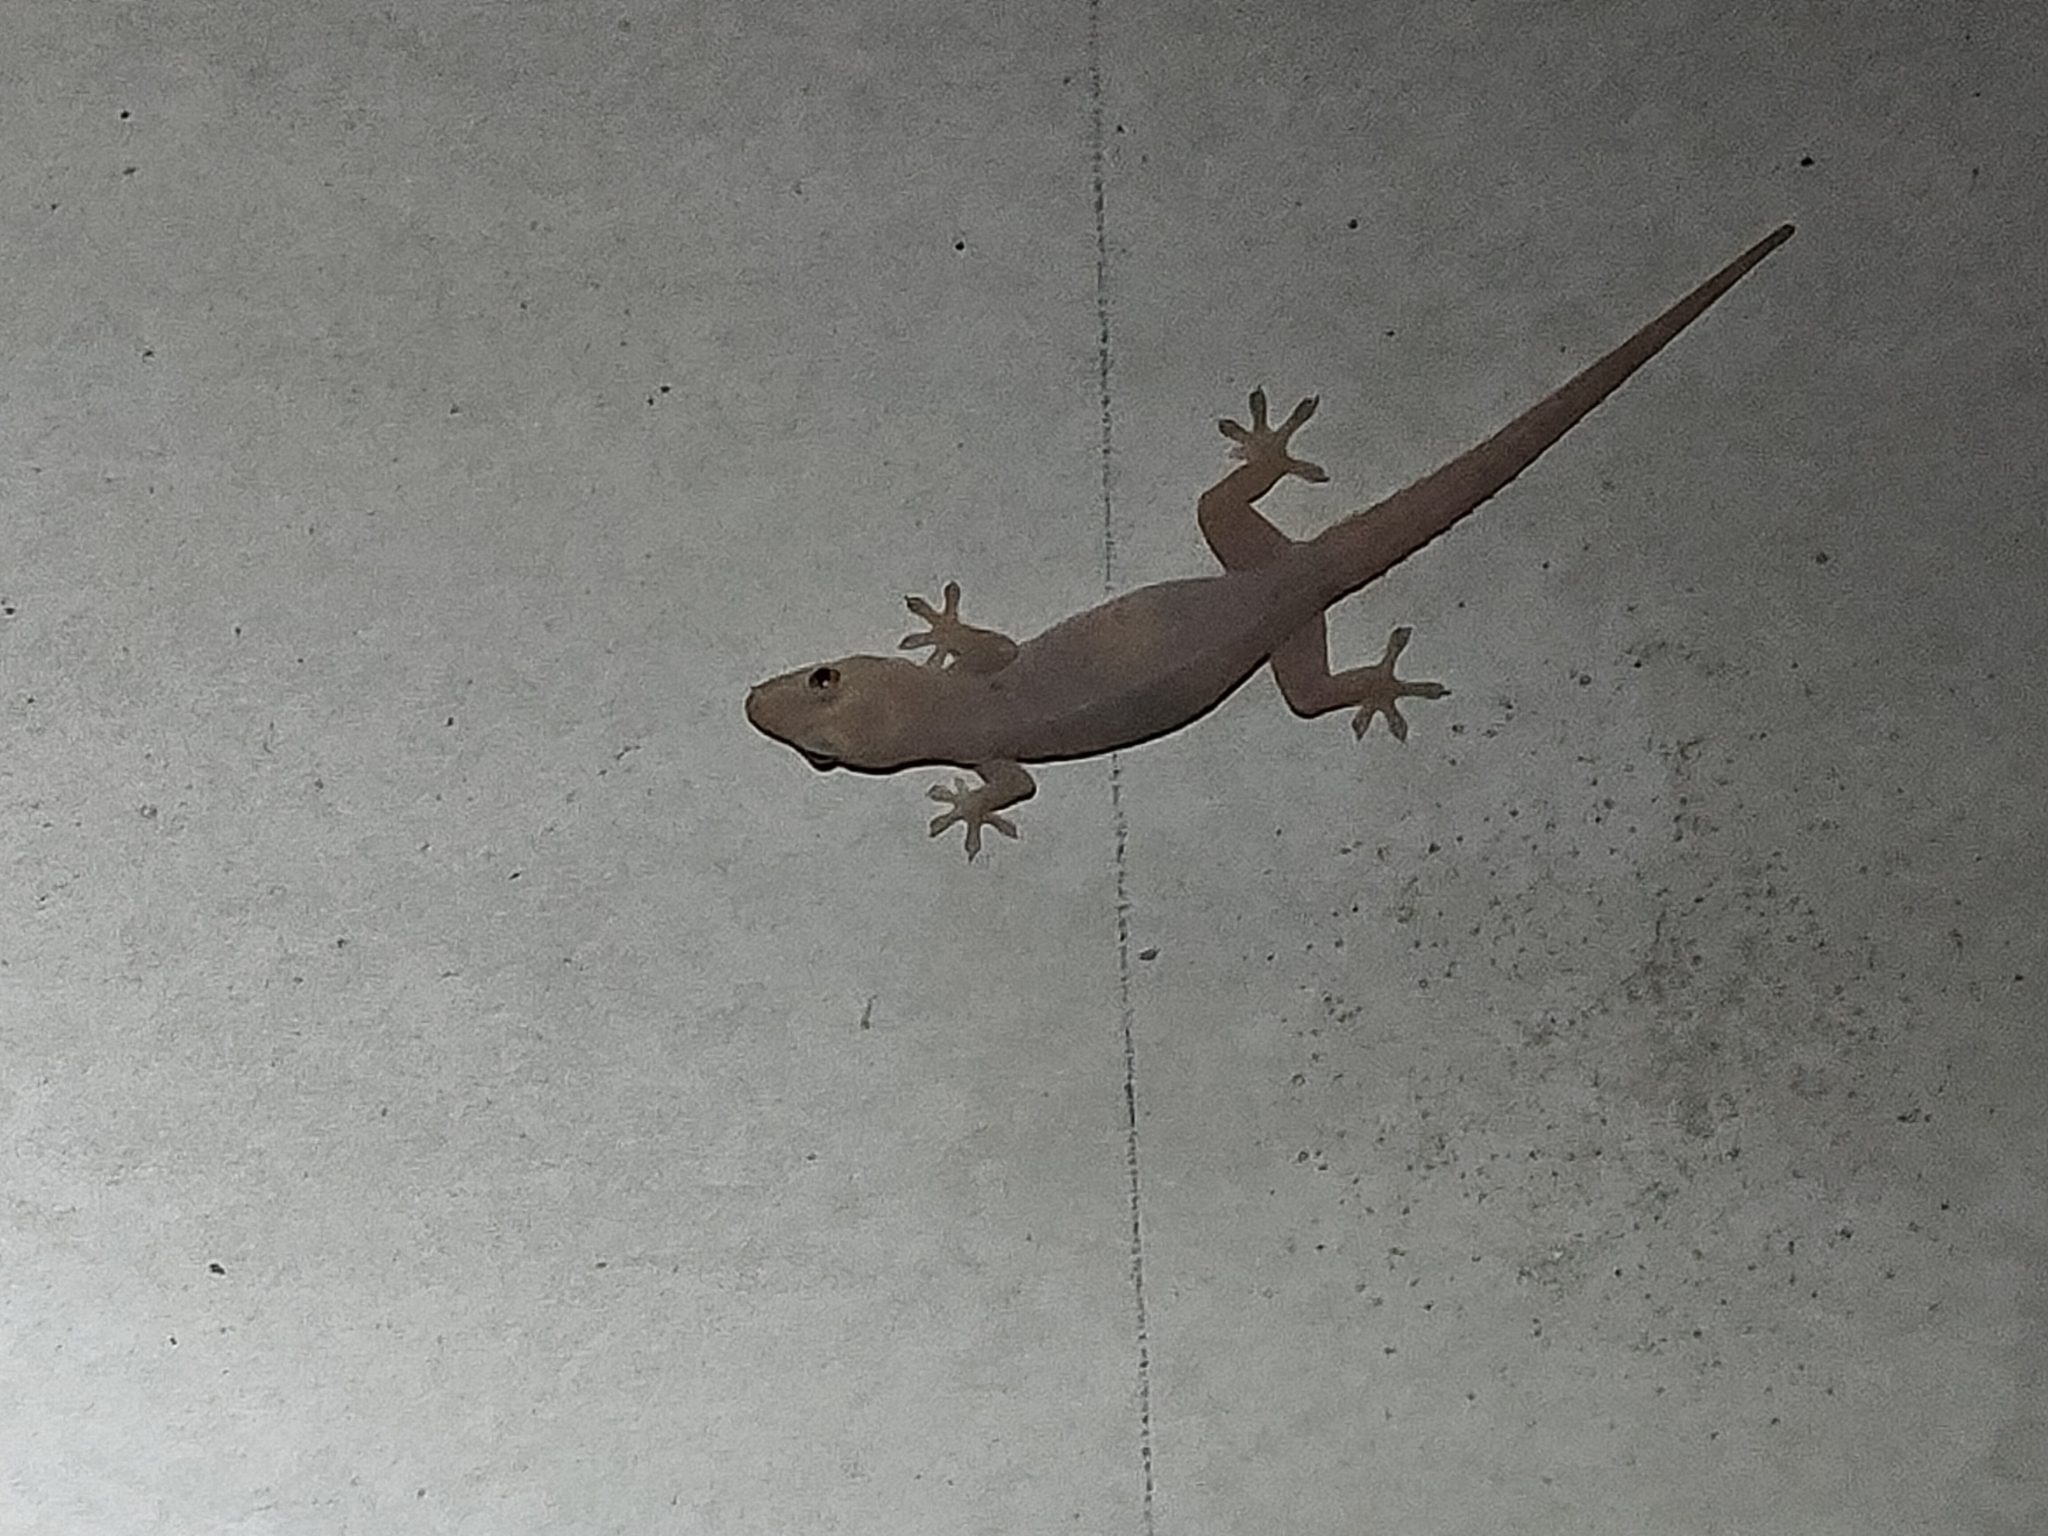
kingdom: Animalia
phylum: Chordata
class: Squamata
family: Gekkonidae
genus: Hemidactylus
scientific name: Hemidactylus frenatus
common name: Common house gecko
